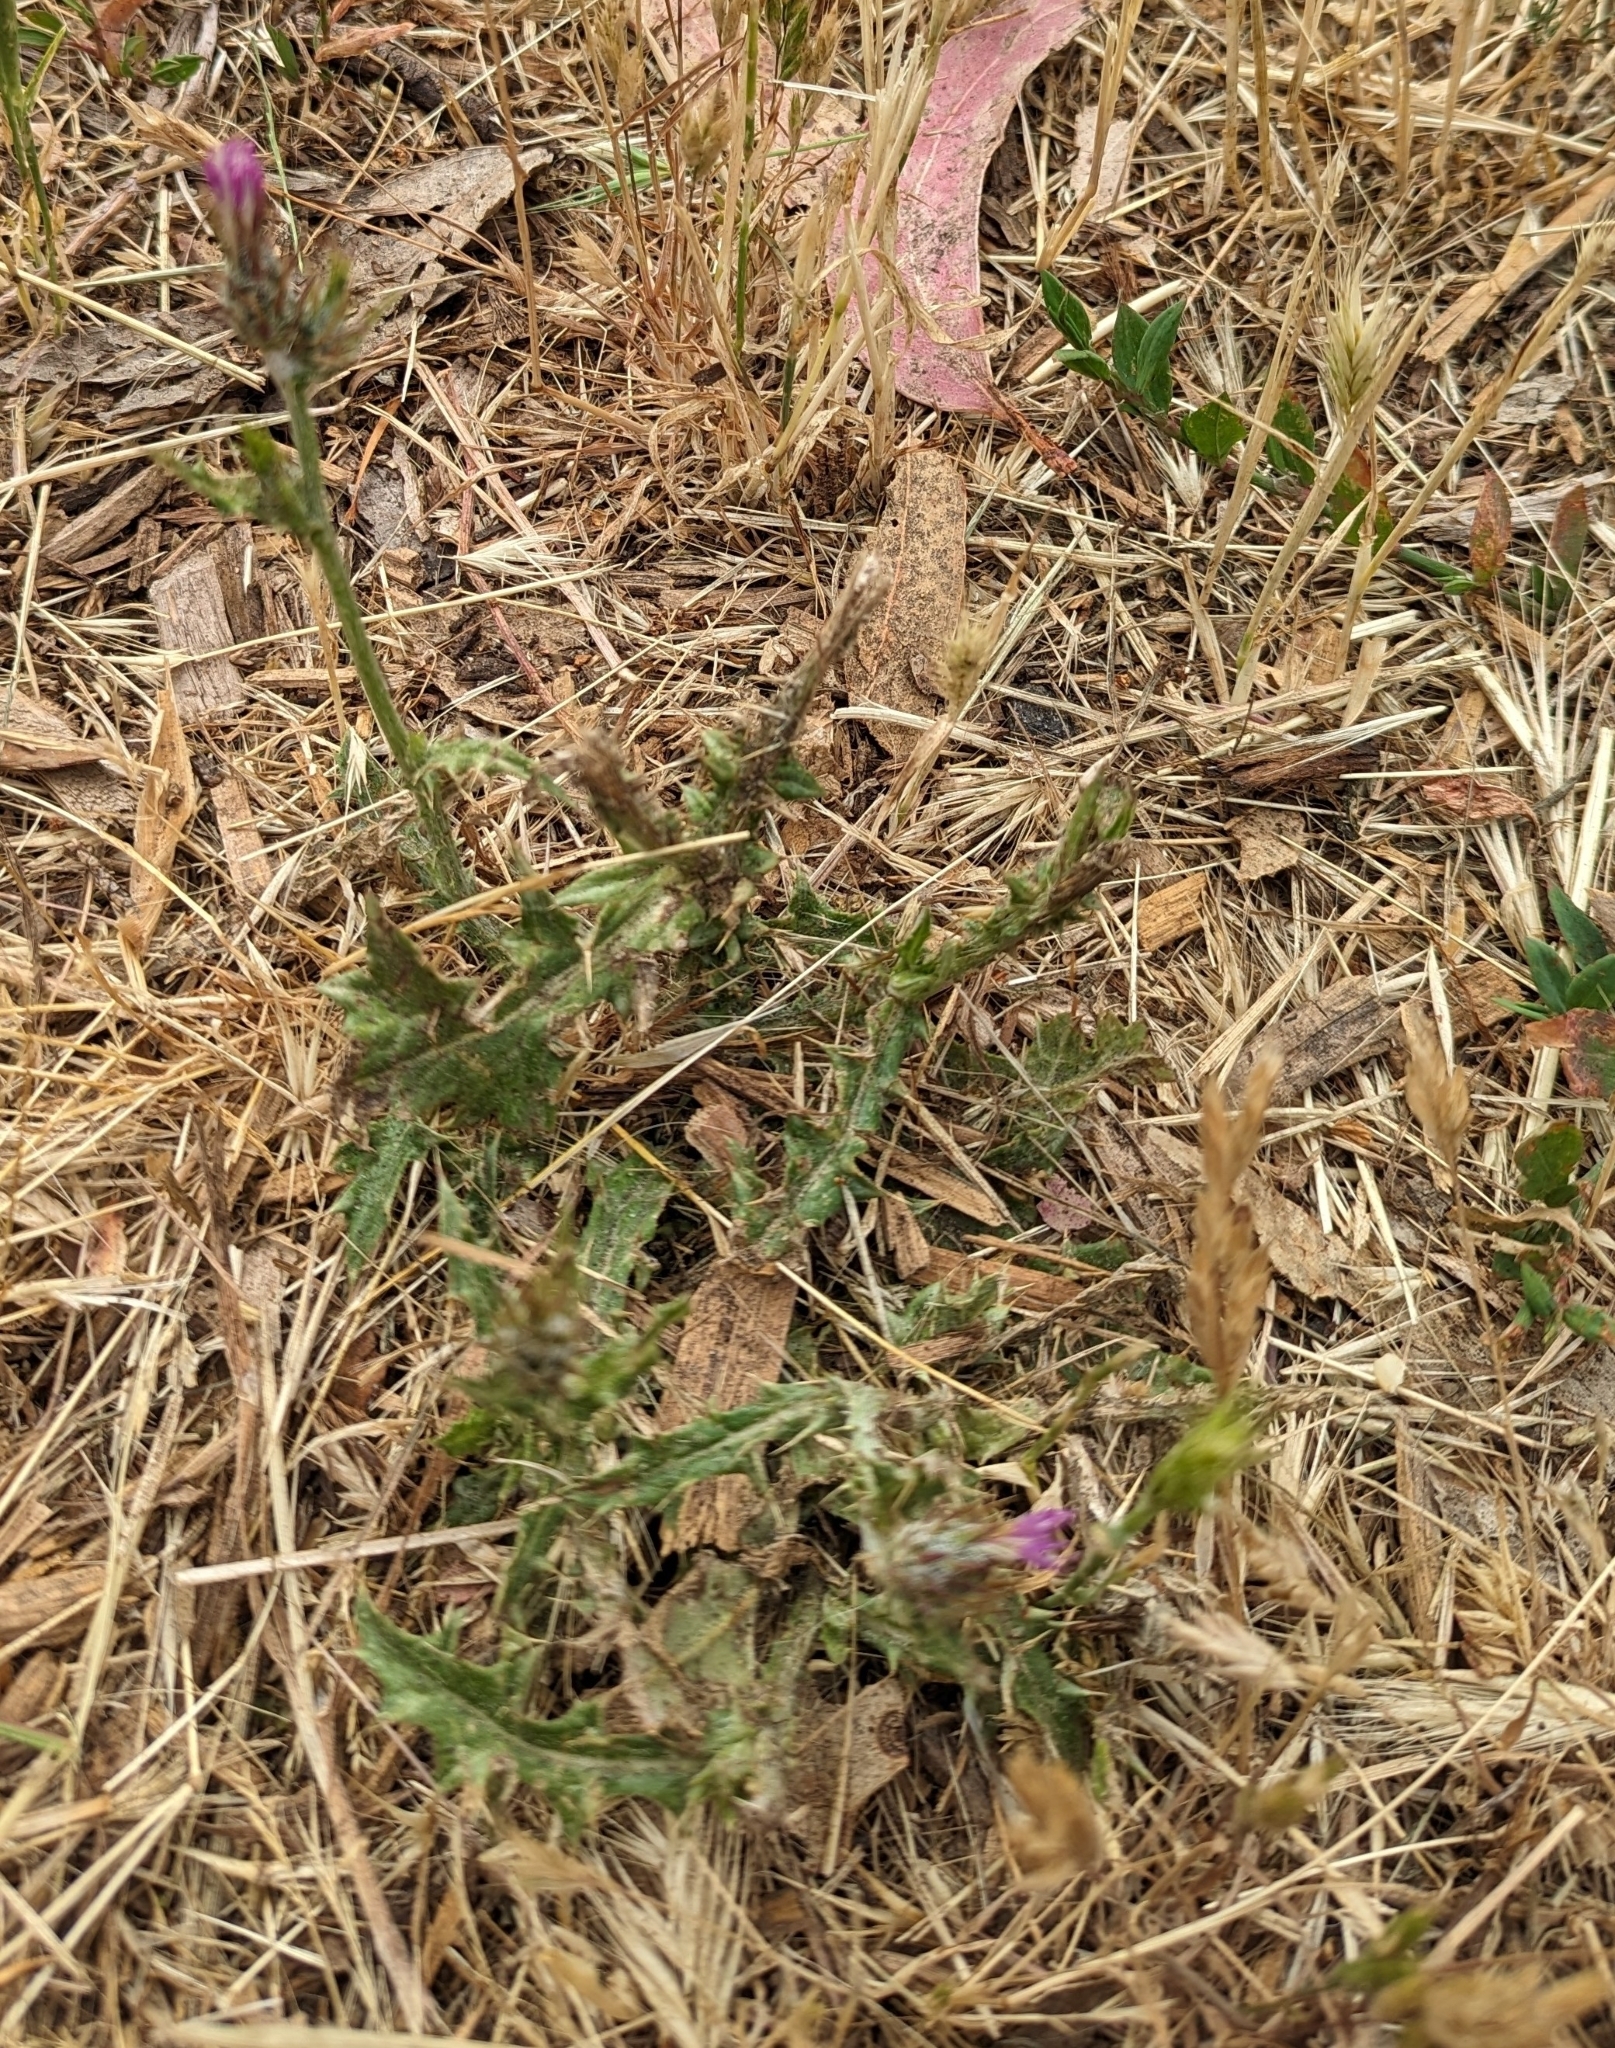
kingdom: Plantae
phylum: Tracheophyta
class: Magnoliopsida
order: Asterales
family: Asteraceae
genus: Carduus
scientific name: Carduus pycnocephalus
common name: Plymouth thistle
